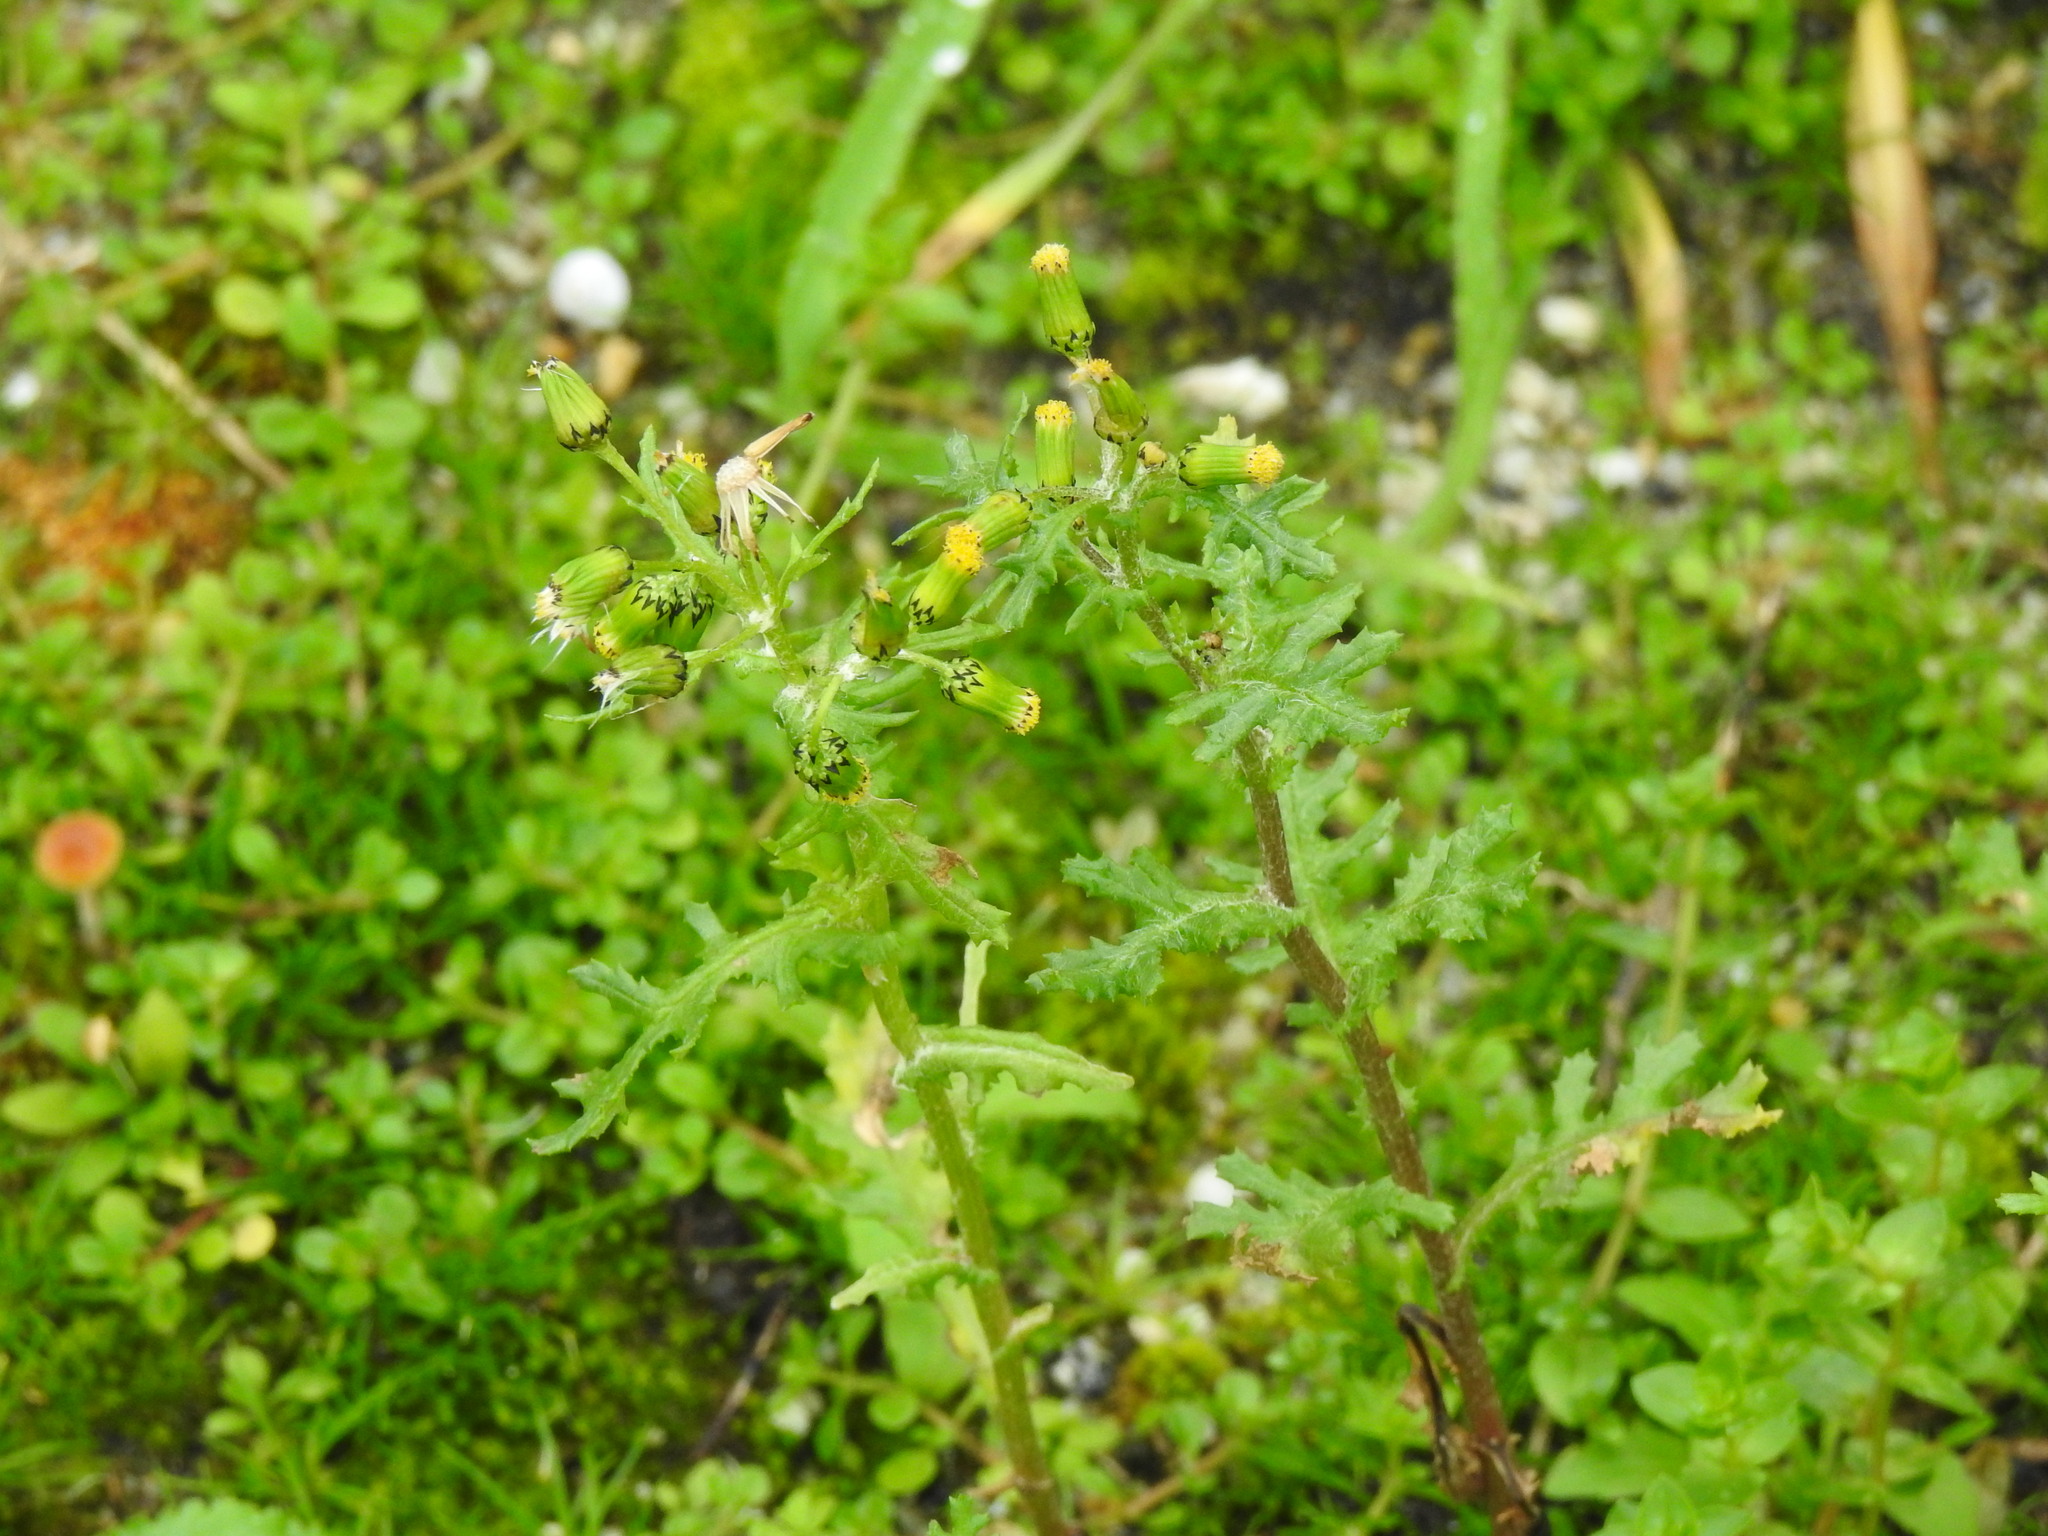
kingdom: Plantae
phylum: Tracheophyta
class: Magnoliopsida
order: Asterales
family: Asteraceae
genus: Senecio
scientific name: Senecio vulgaris
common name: Old-man-in-the-spring
